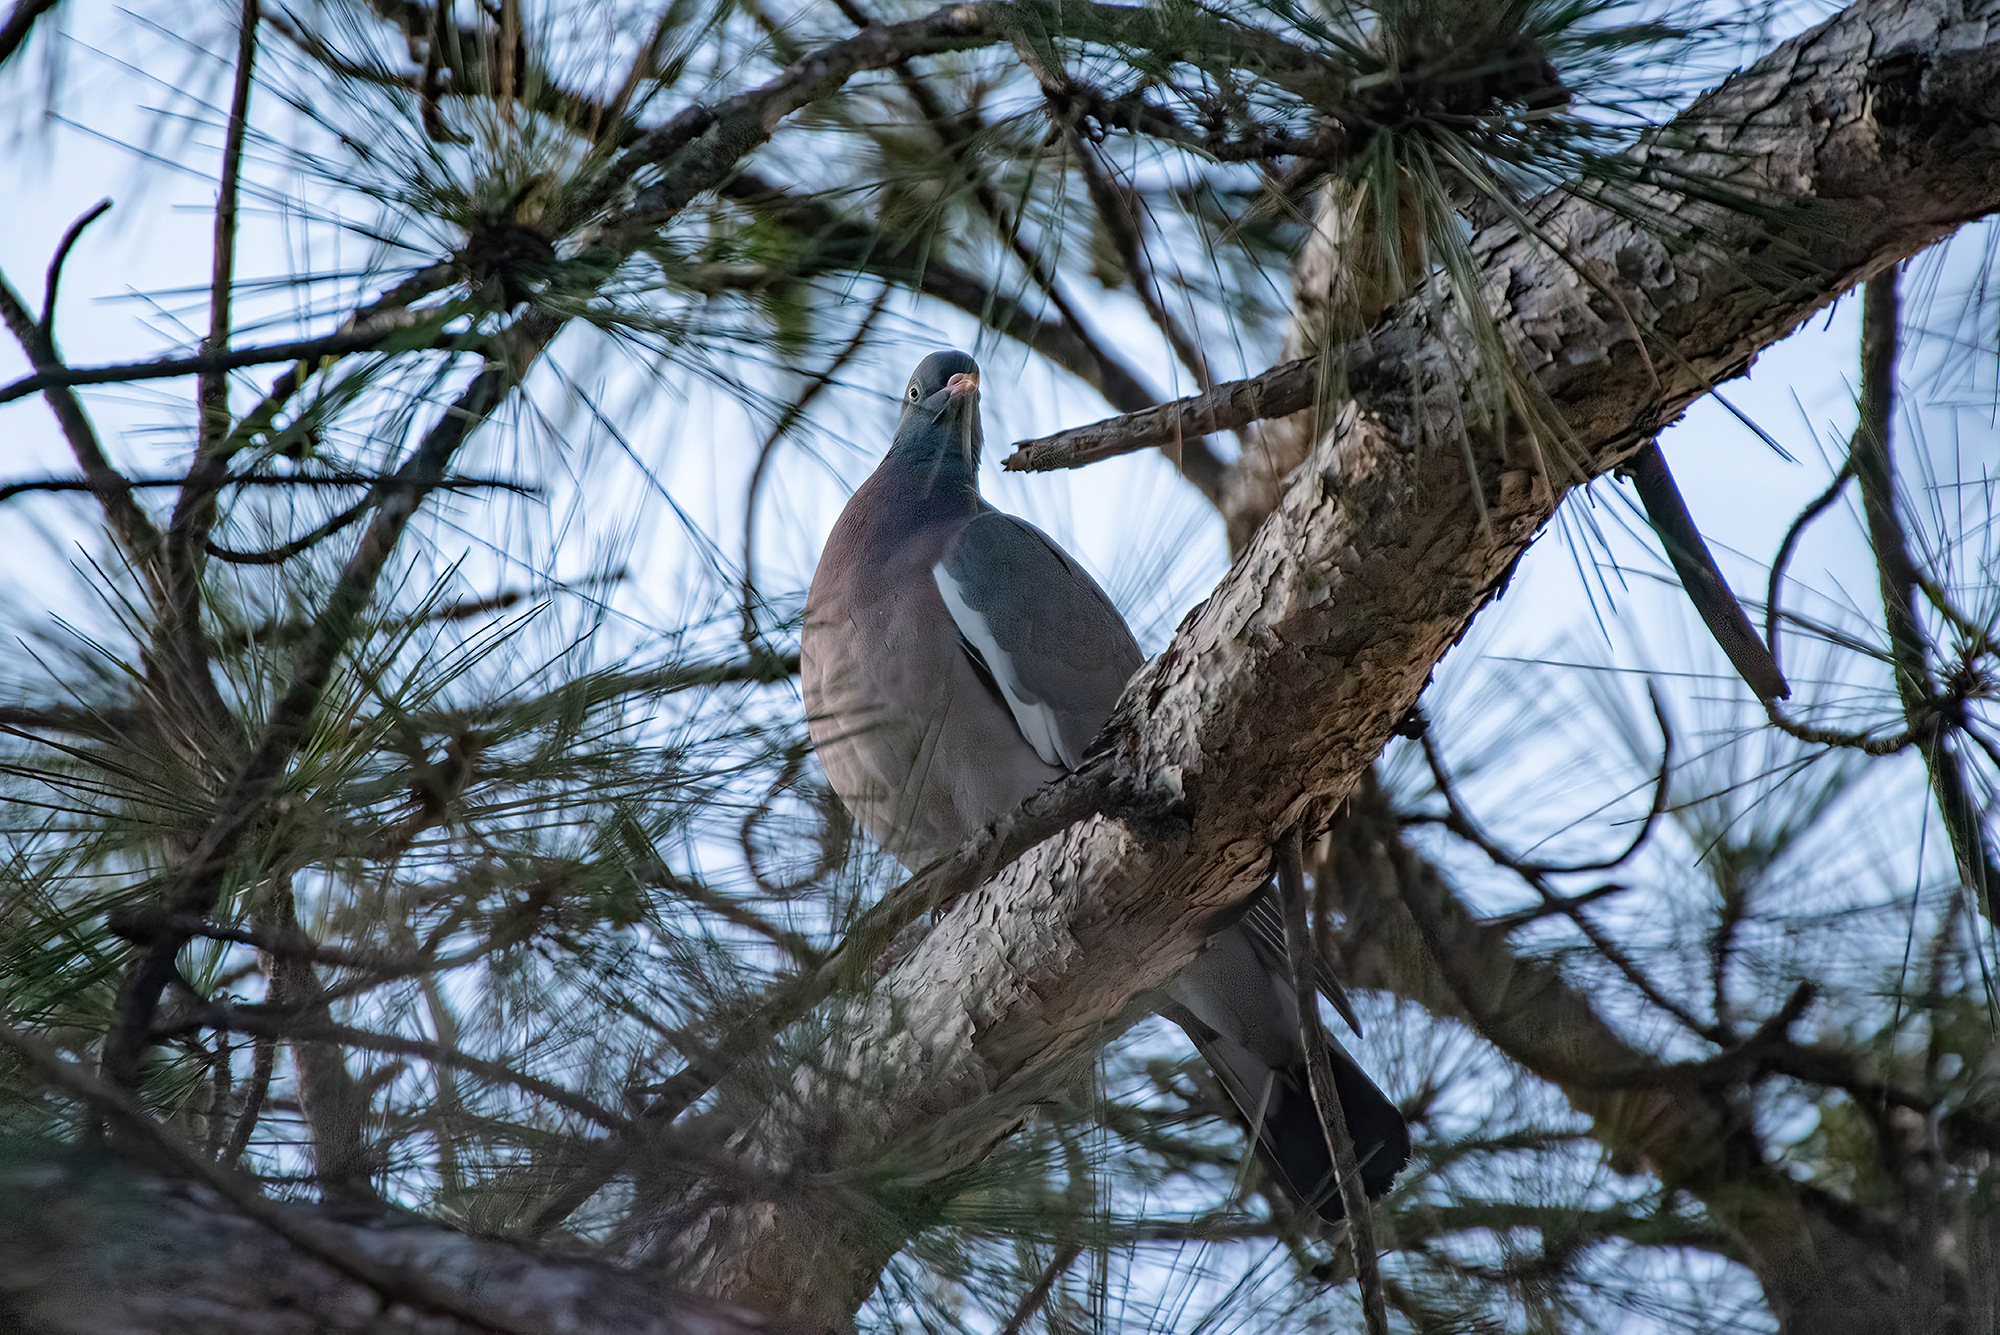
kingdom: Animalia
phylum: Chordata
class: Aves
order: Columbiformes
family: Columbidae
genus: Columba
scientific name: Columba palumbus
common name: Common wood pigeon
